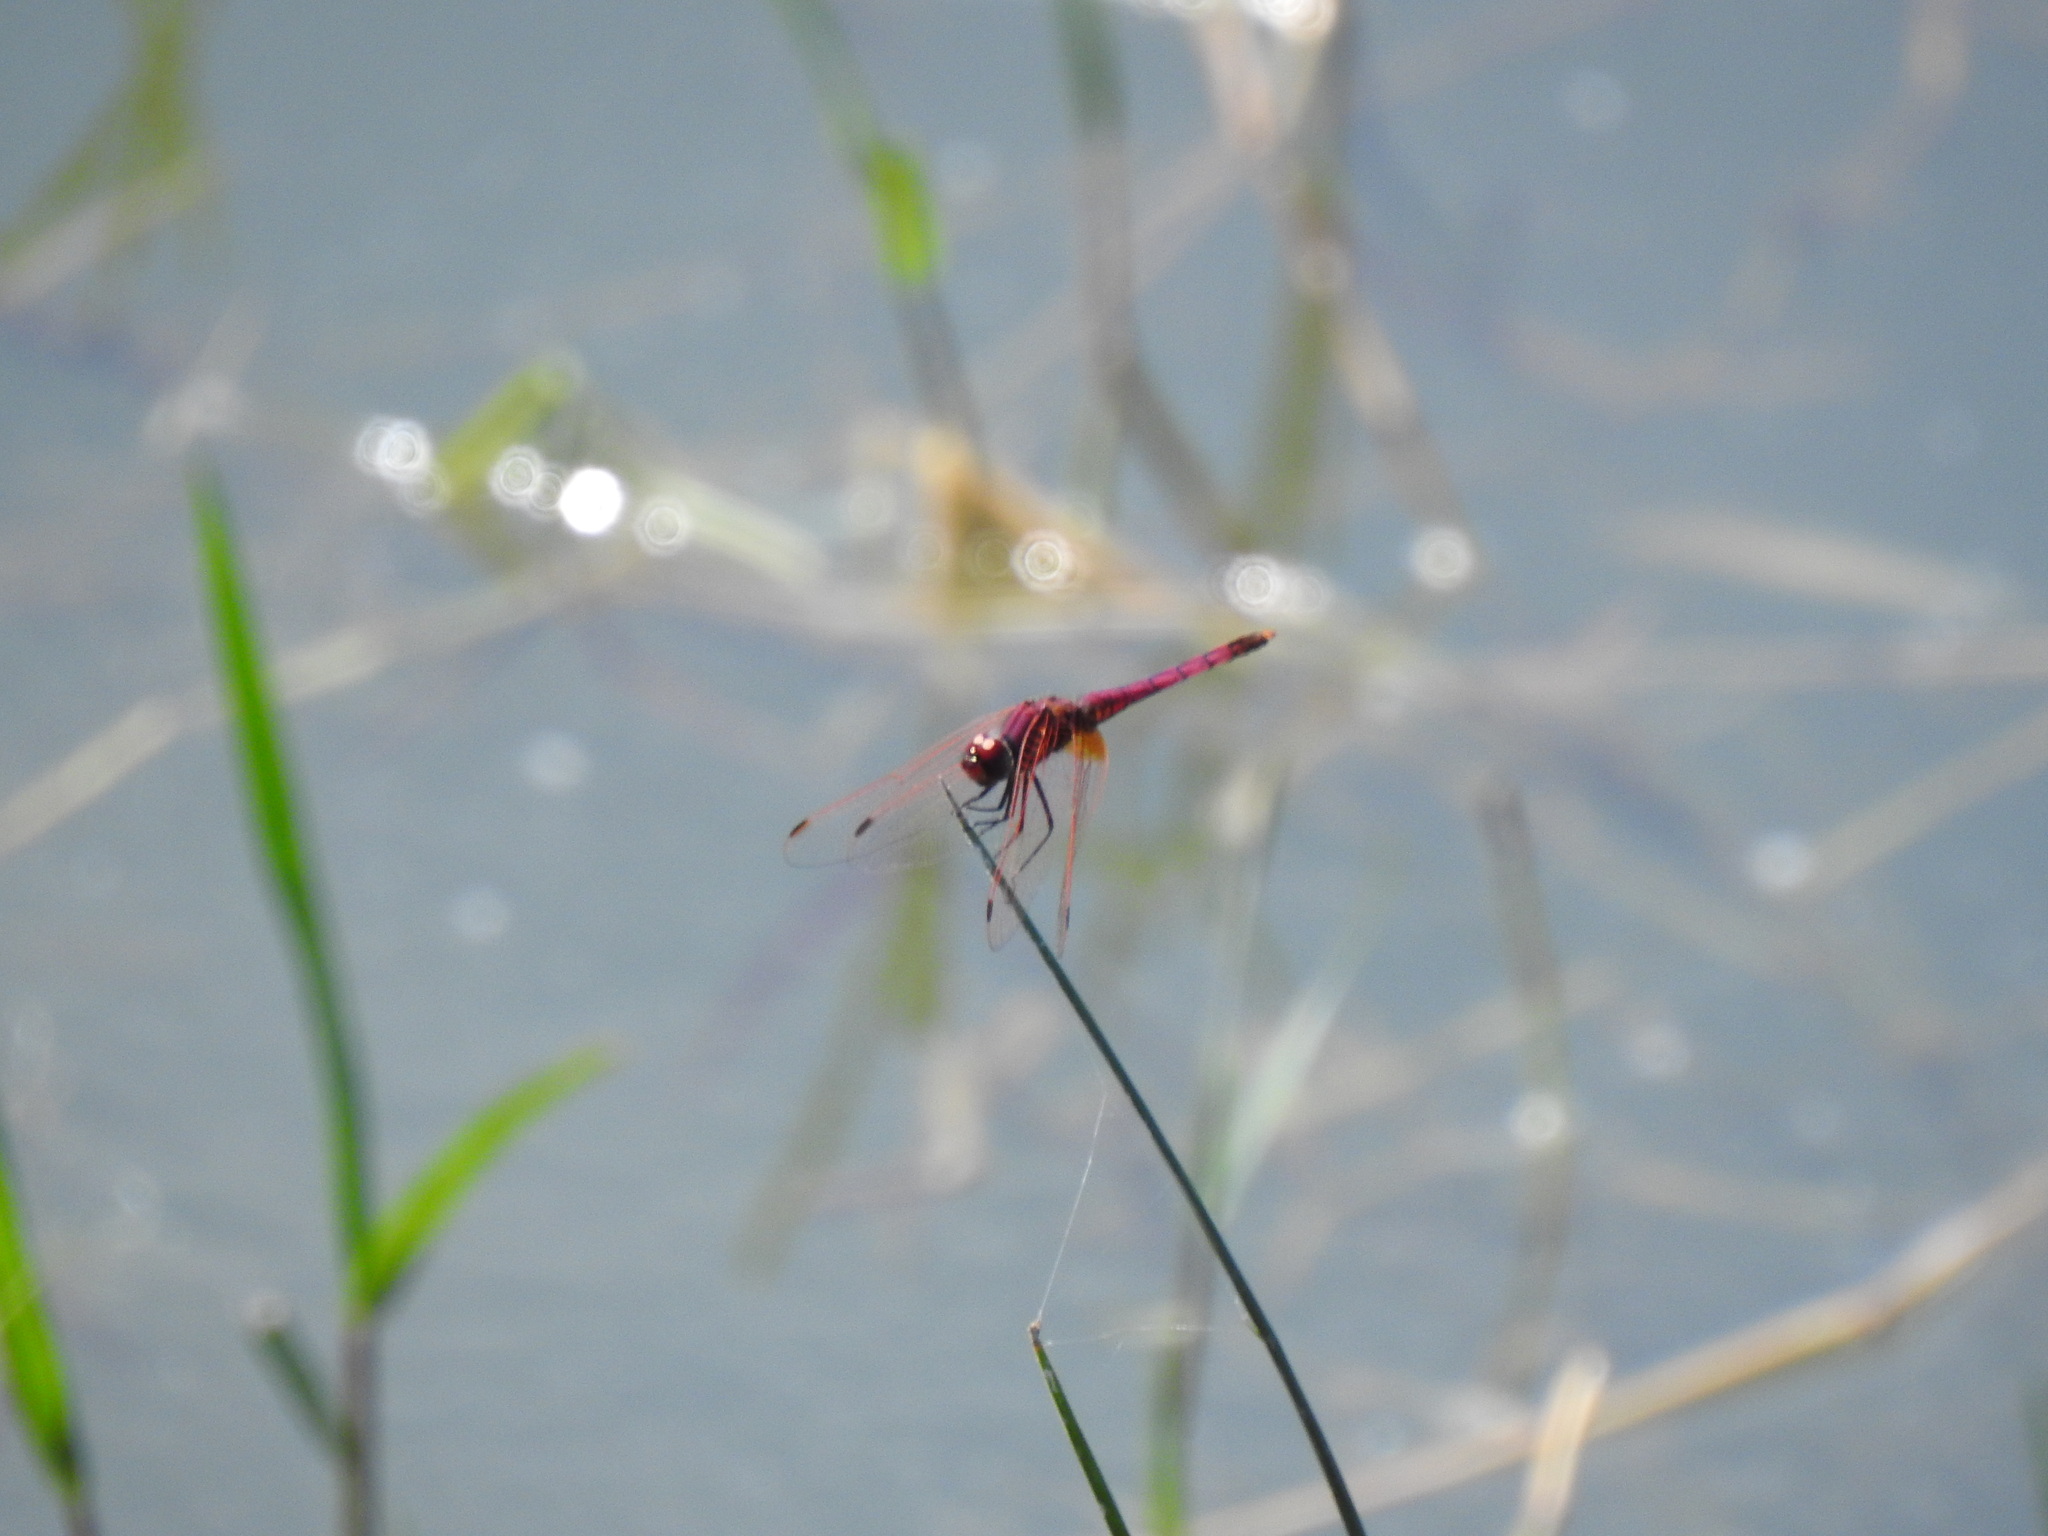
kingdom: Animalia
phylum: Arthropoda
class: Insecta
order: Odonata
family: Libellulidae
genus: Trithemis
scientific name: Trithemis annulata
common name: Violet dropwing
